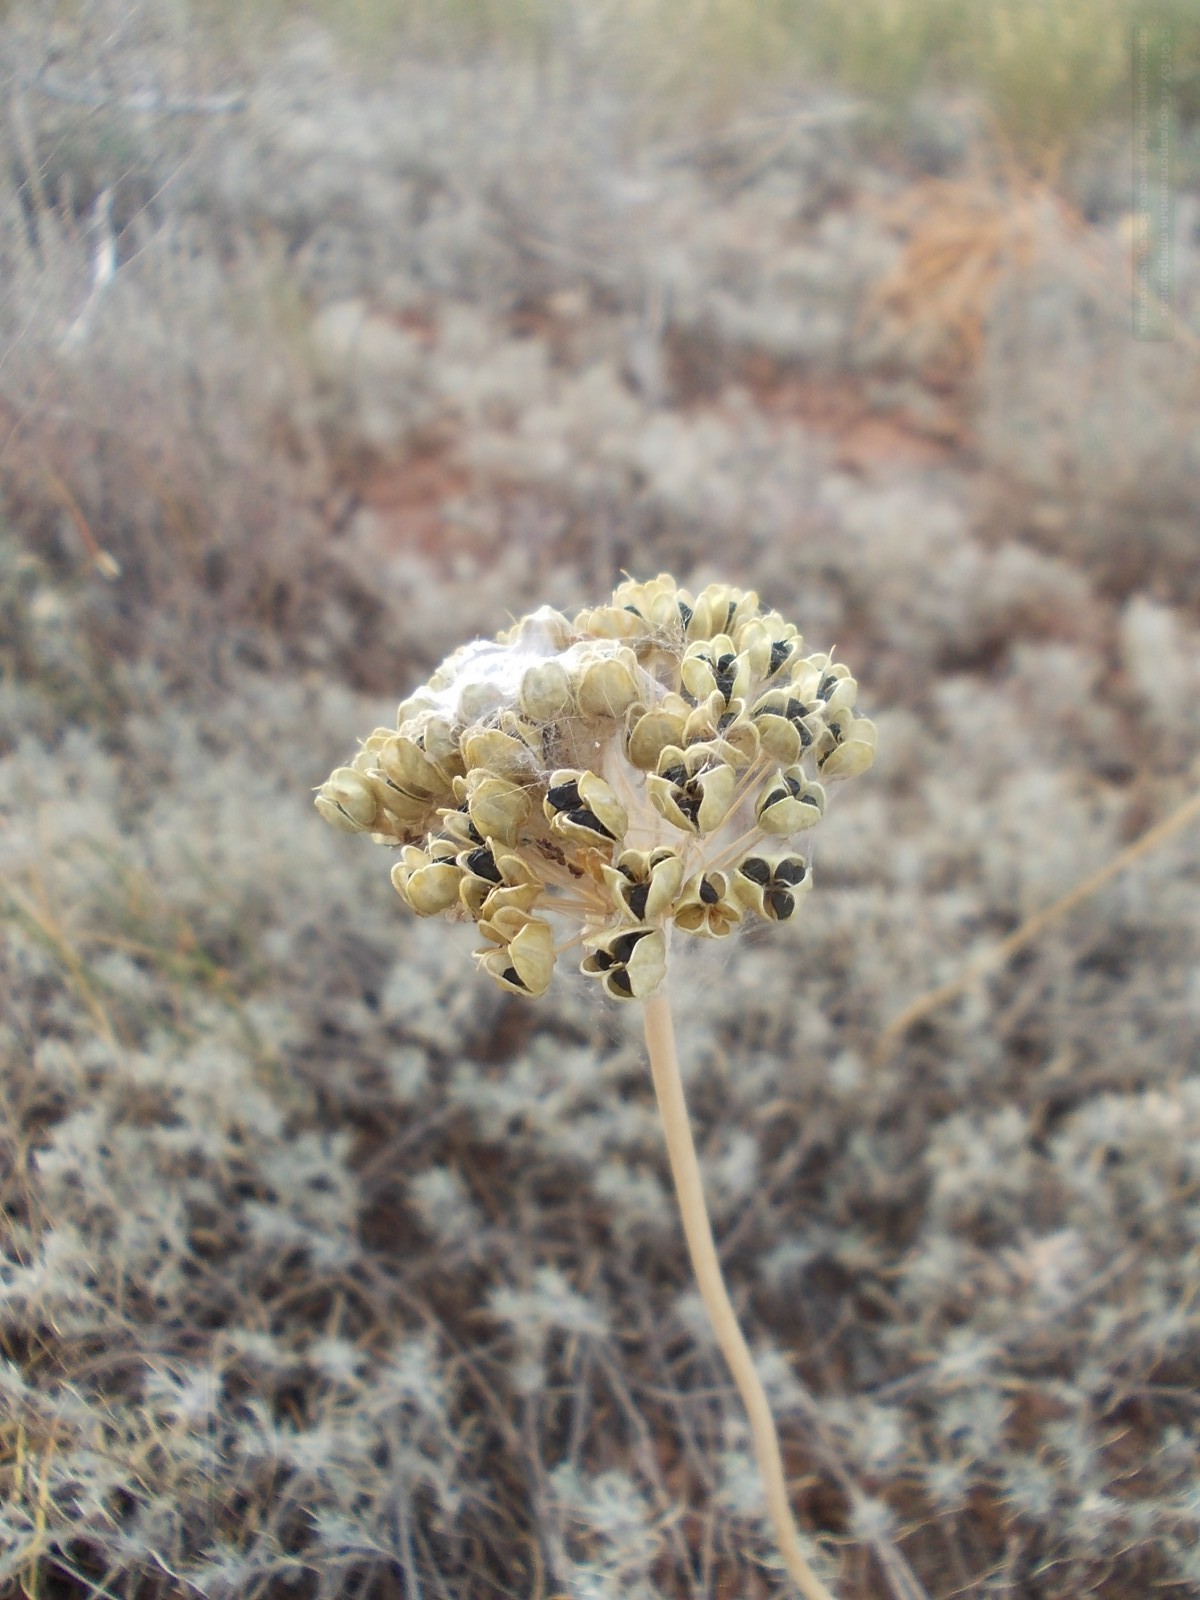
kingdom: Plantae
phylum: Tracheophyta
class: Liliopsida
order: Asparagales
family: Amaryllidaceae
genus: Allium
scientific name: Allium tulipifolium
